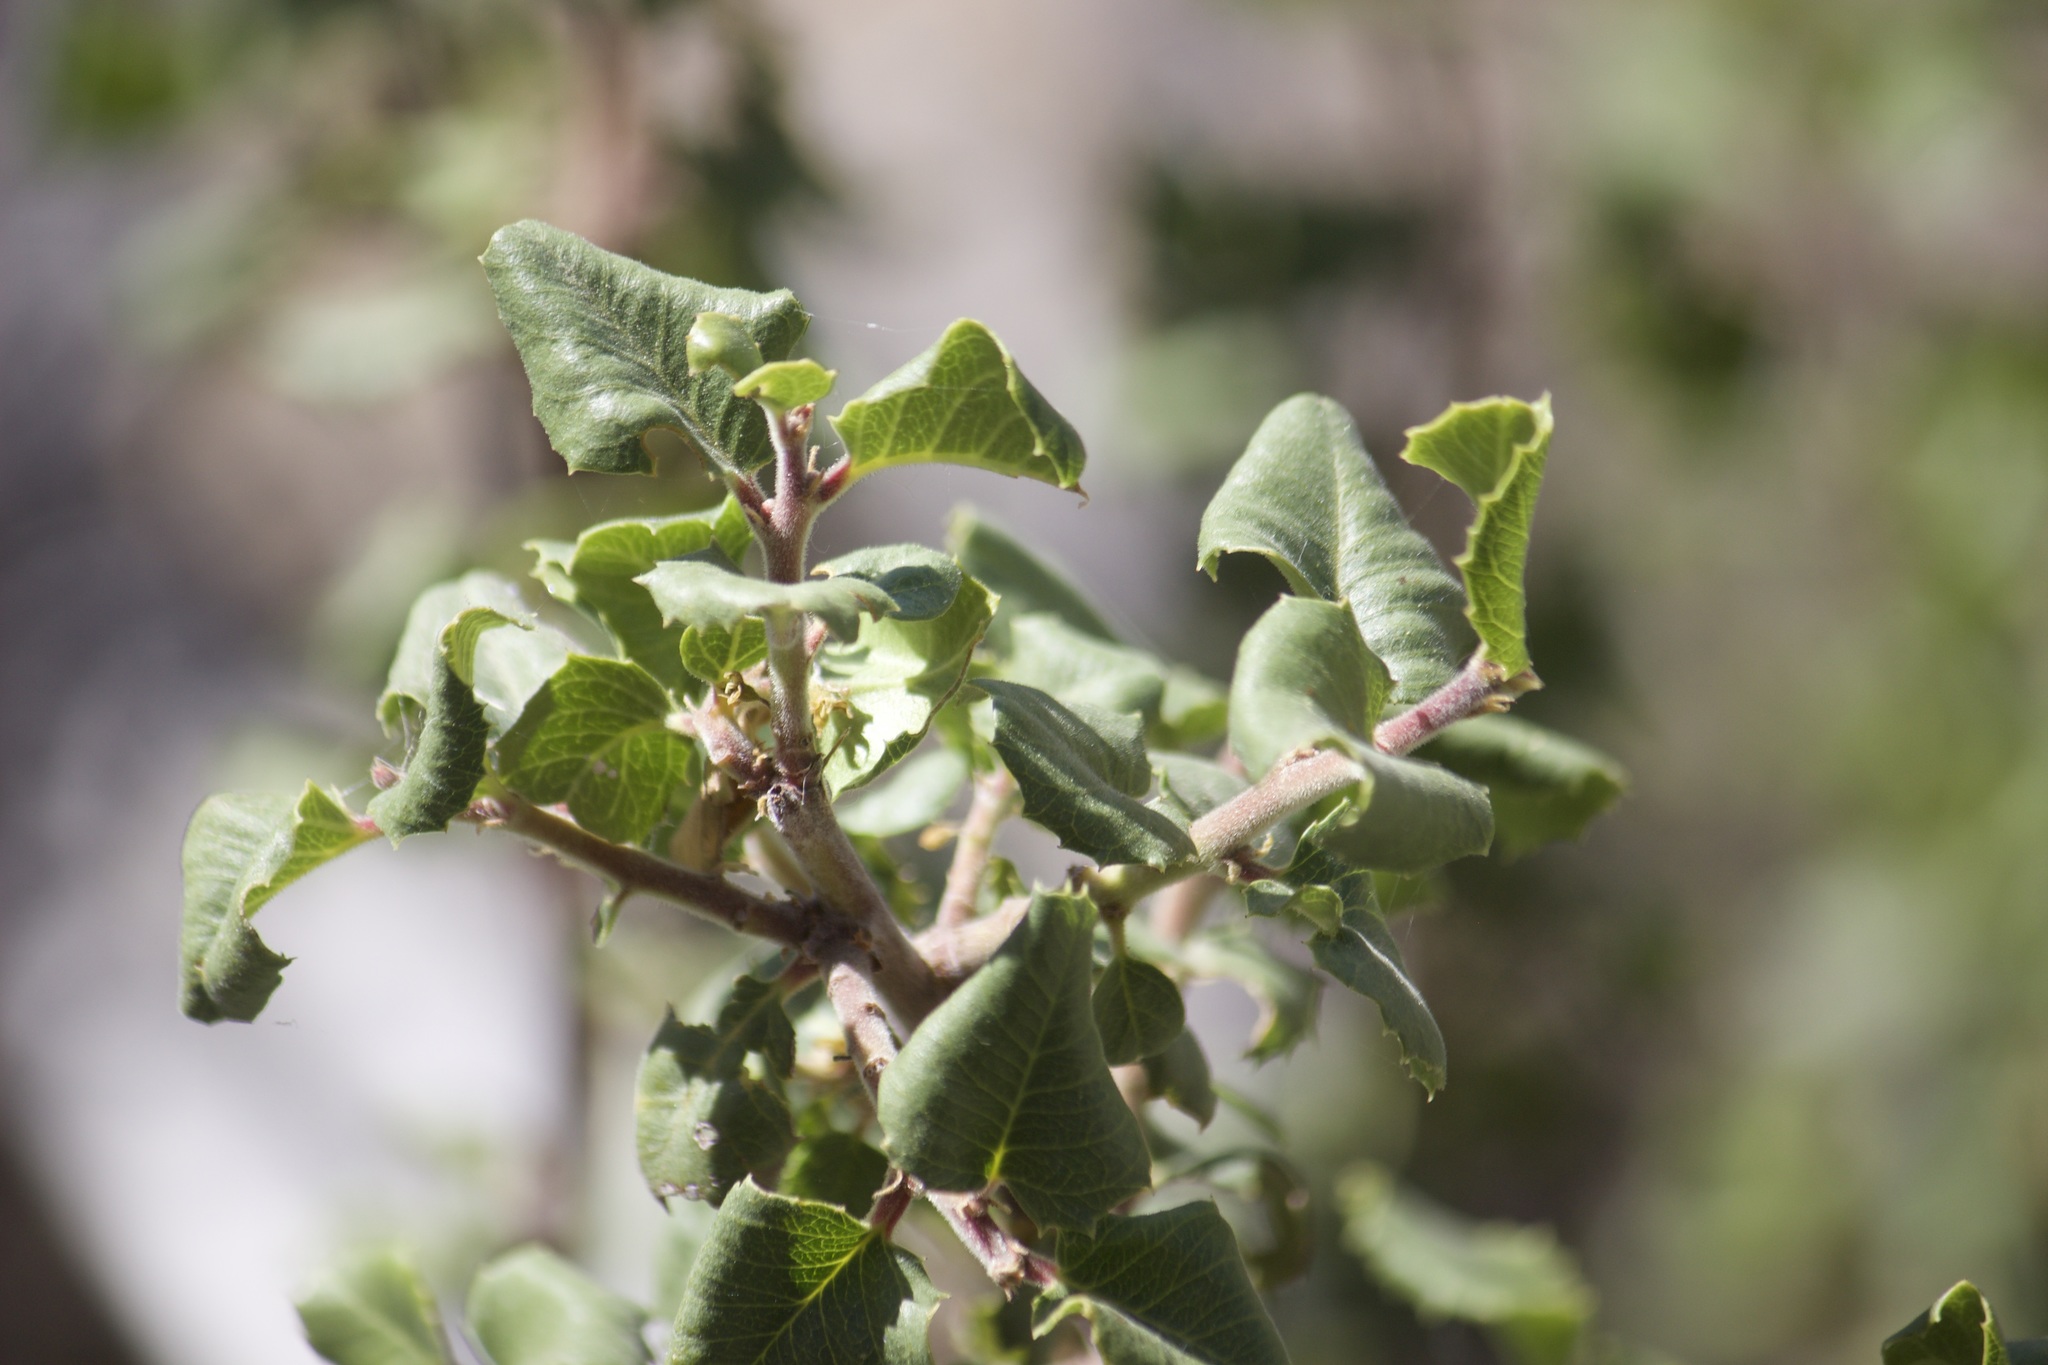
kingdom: Plantae
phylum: Tracheophyta
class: Magnoliopsida
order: Rosales
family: Rhamnaceae
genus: Endotropis
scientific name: Endotropis crocea
